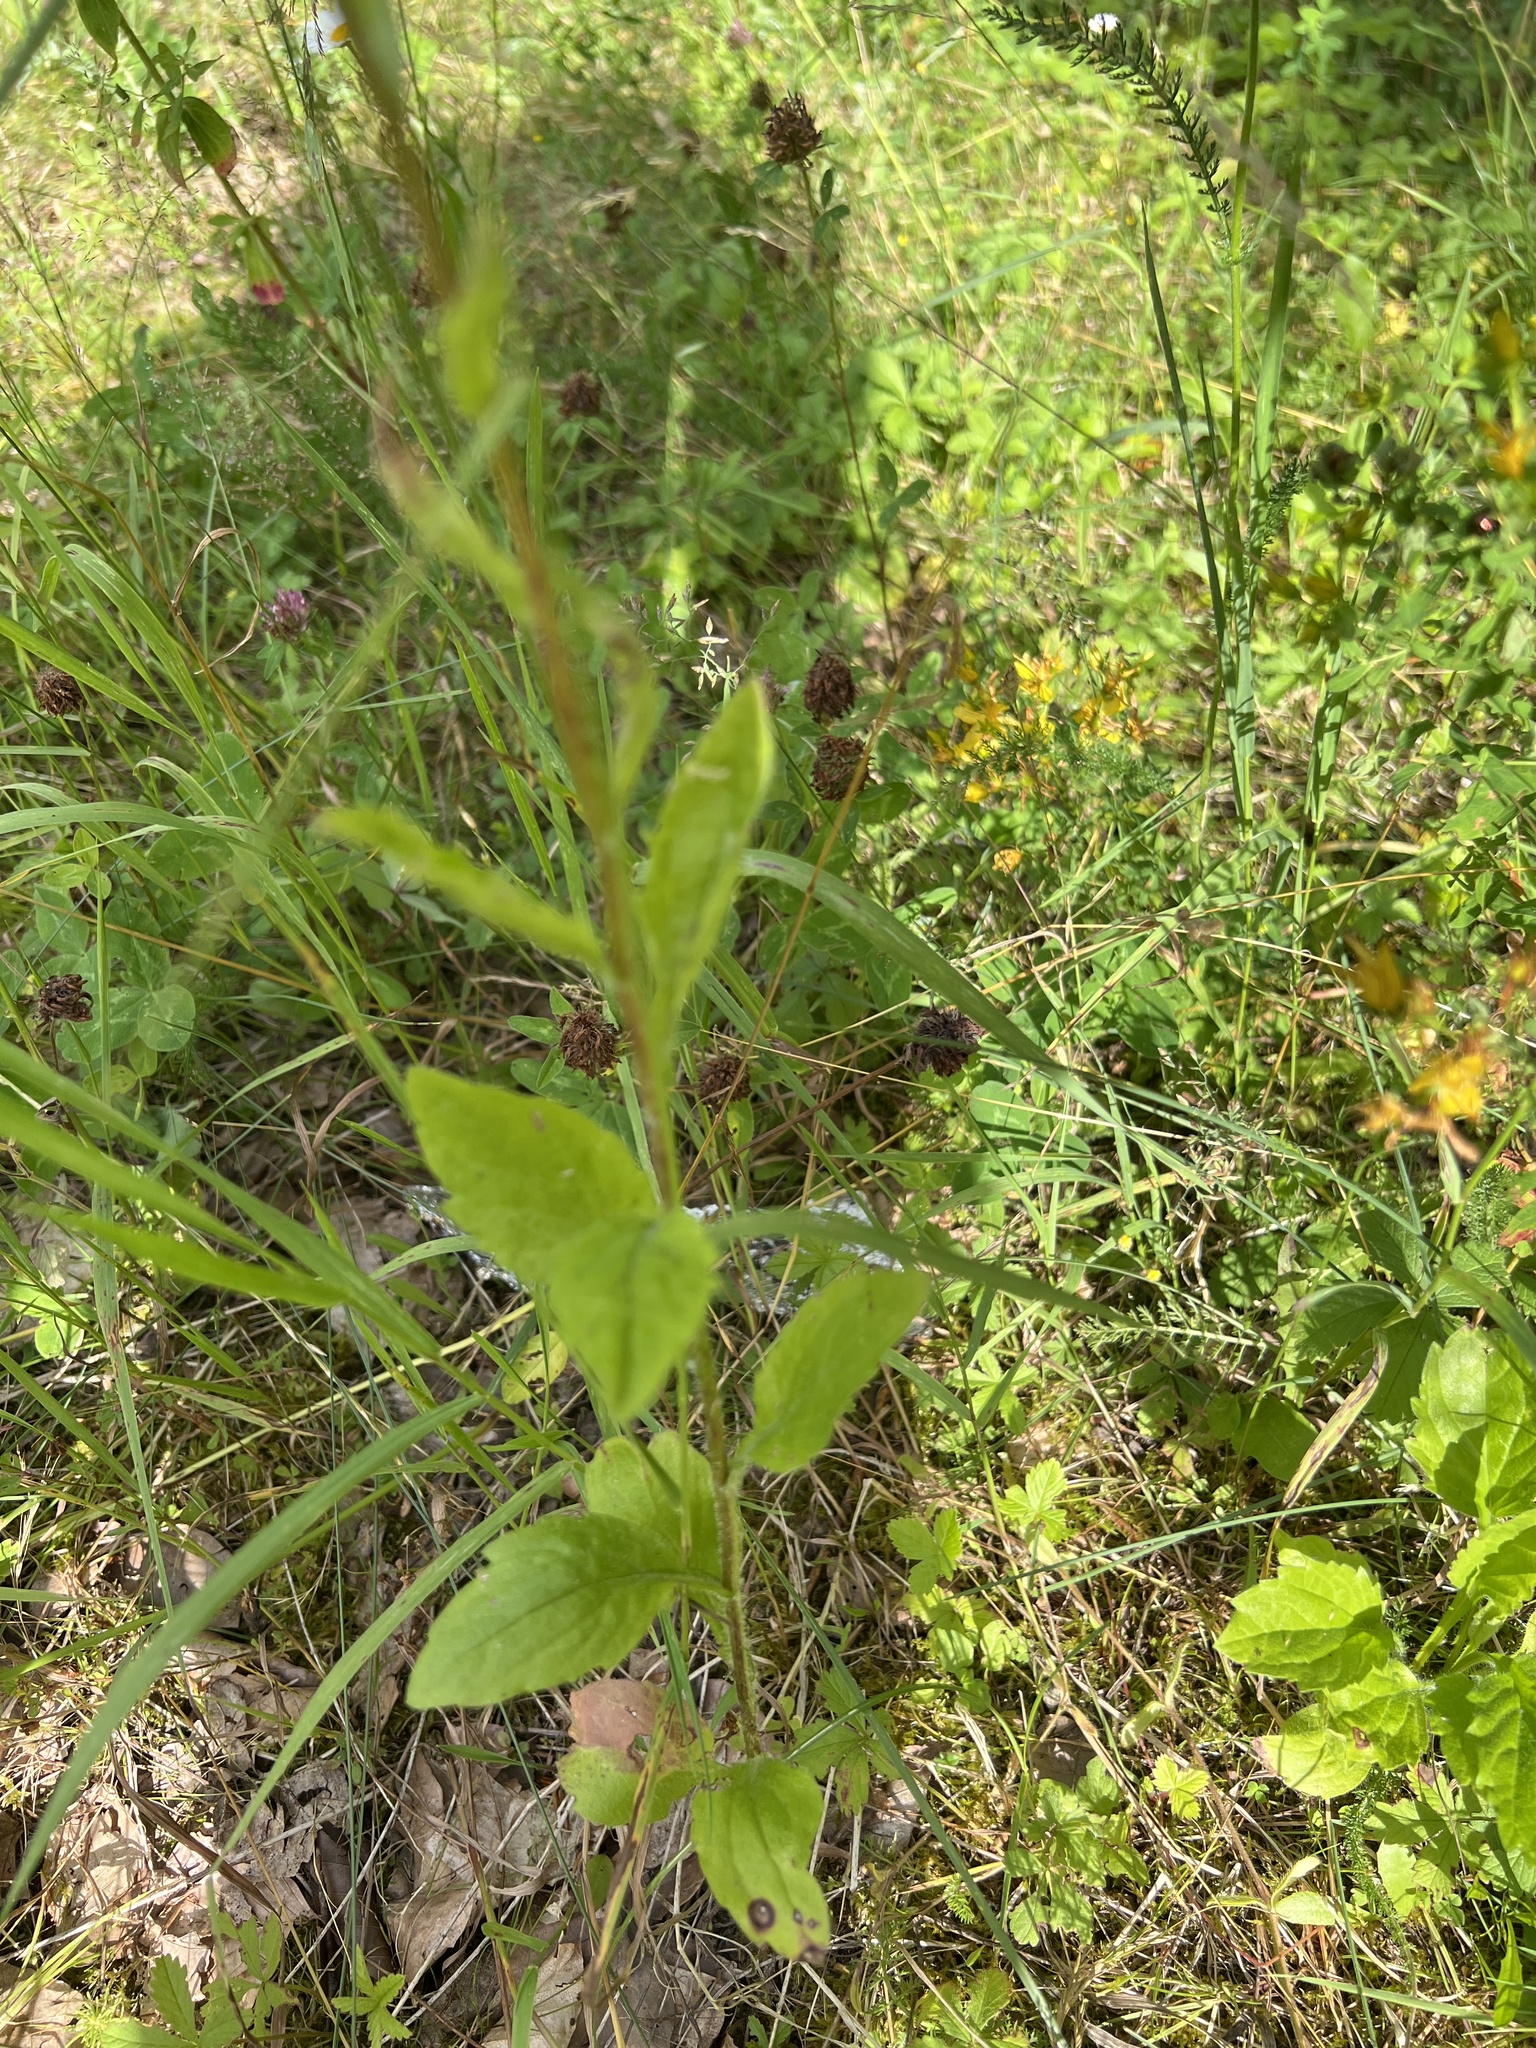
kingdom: Plantae
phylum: Tracheophyta
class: Magnoliopsida
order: Asterales
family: Asteraceae
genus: Erigeron
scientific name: Erigeron annuus
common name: Tall fleabane
